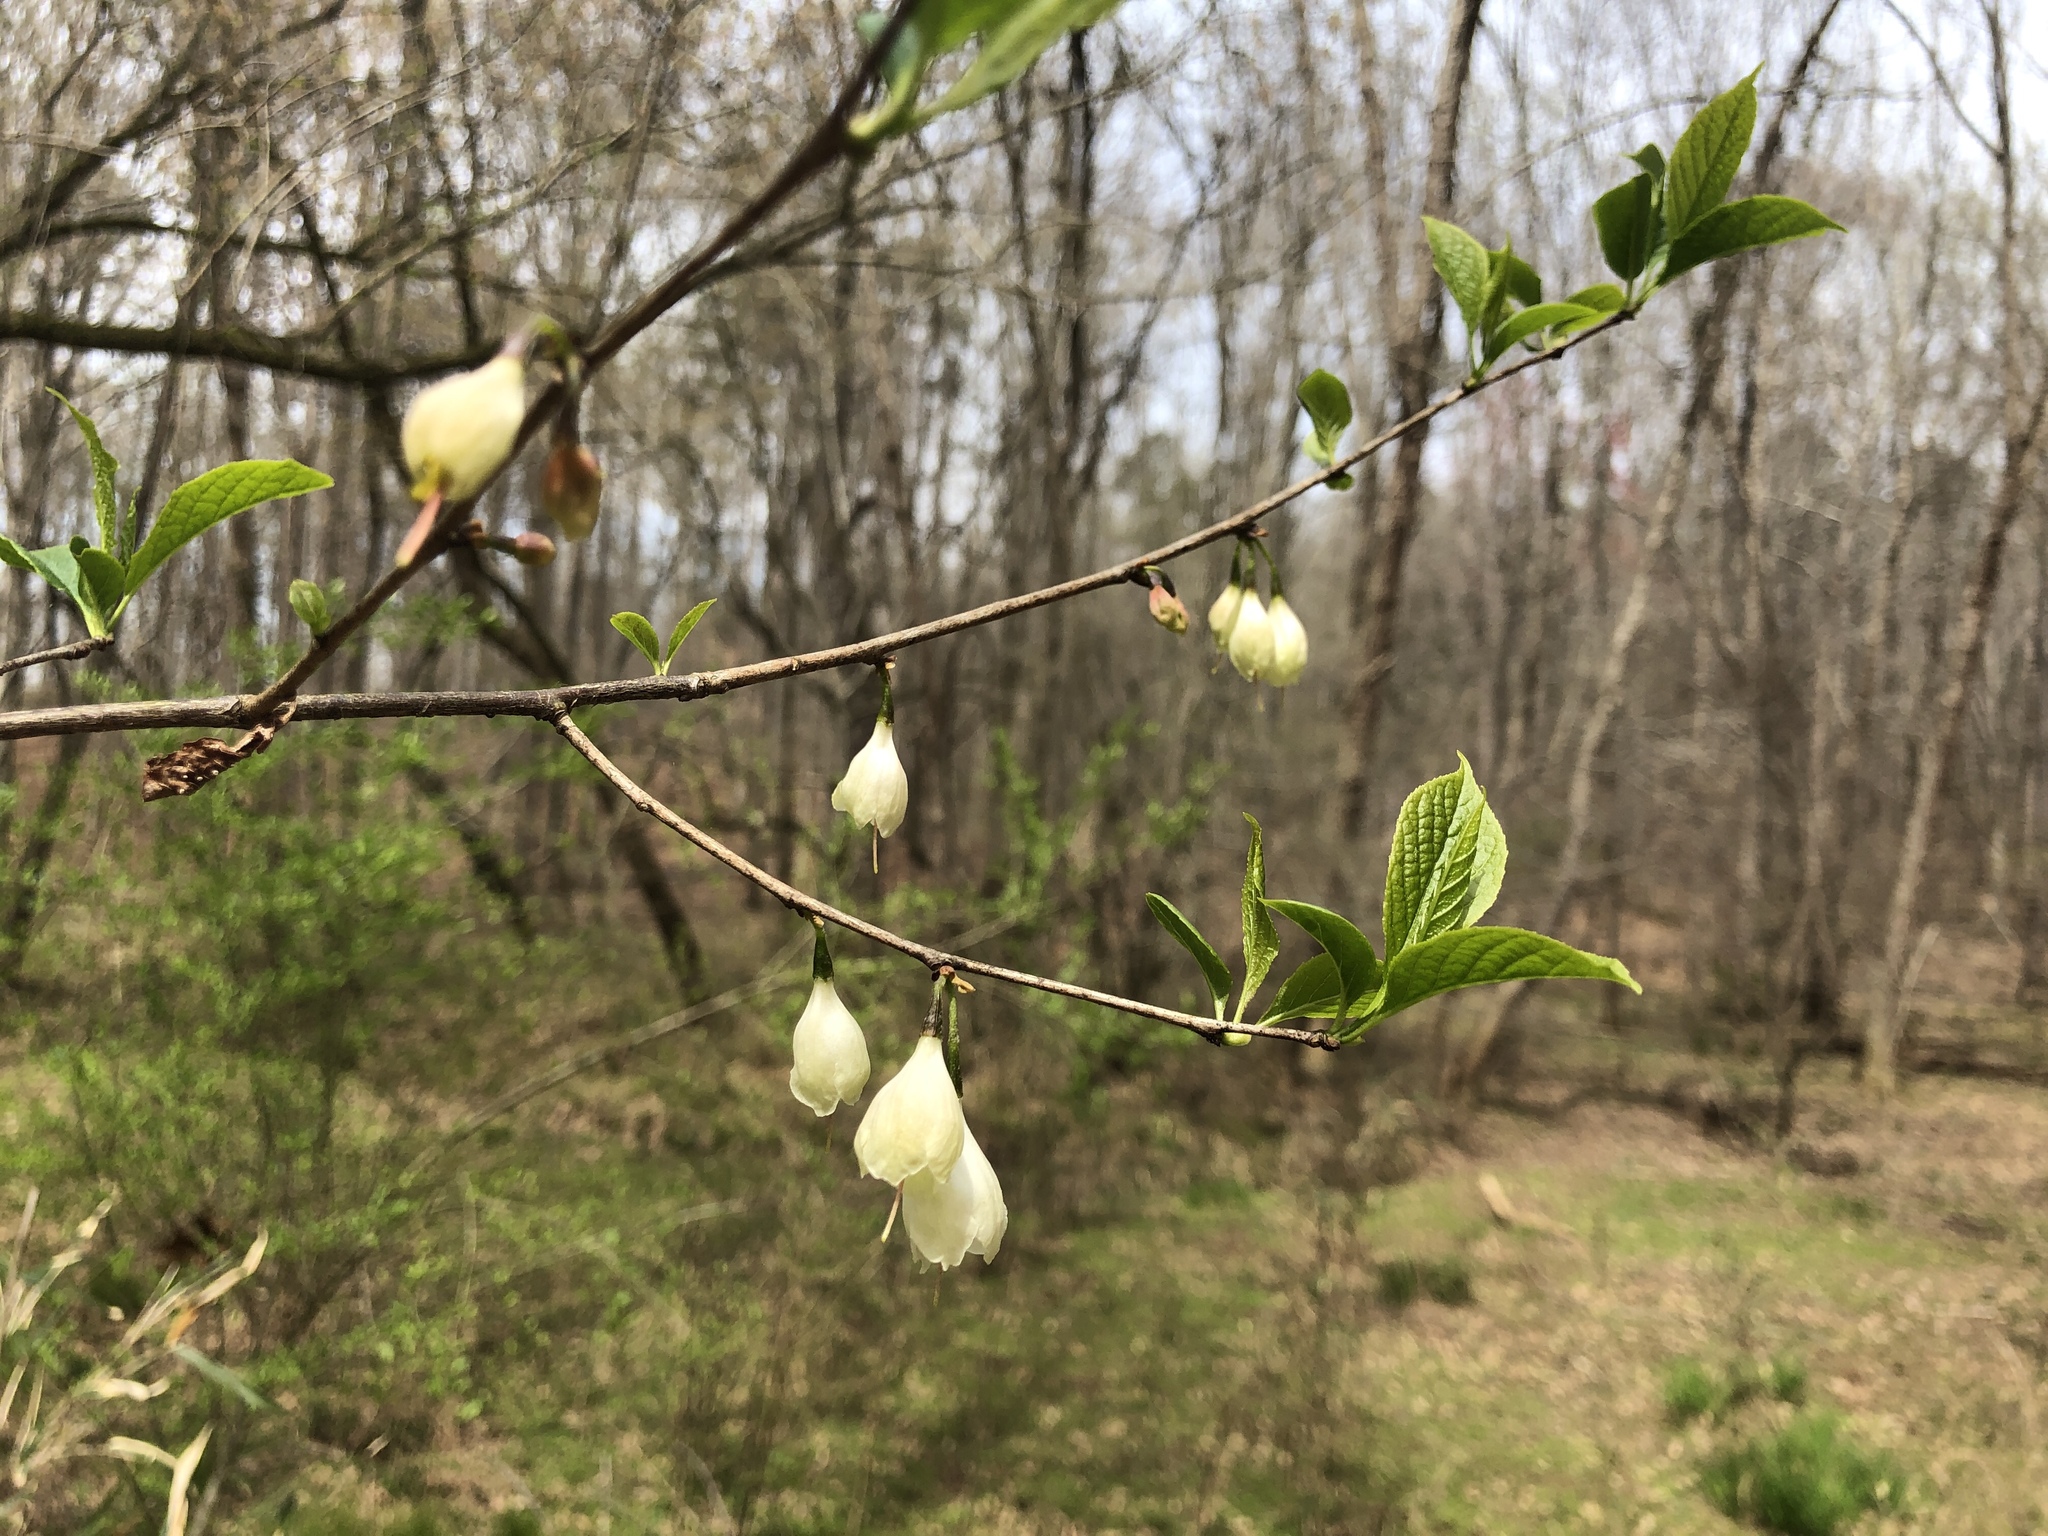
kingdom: Plantae
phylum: Tracheophyta
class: Magnoliopsida
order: Ericales
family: Styracaceae
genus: Halesia
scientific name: Halesia carolina
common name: Carolina silverbell
